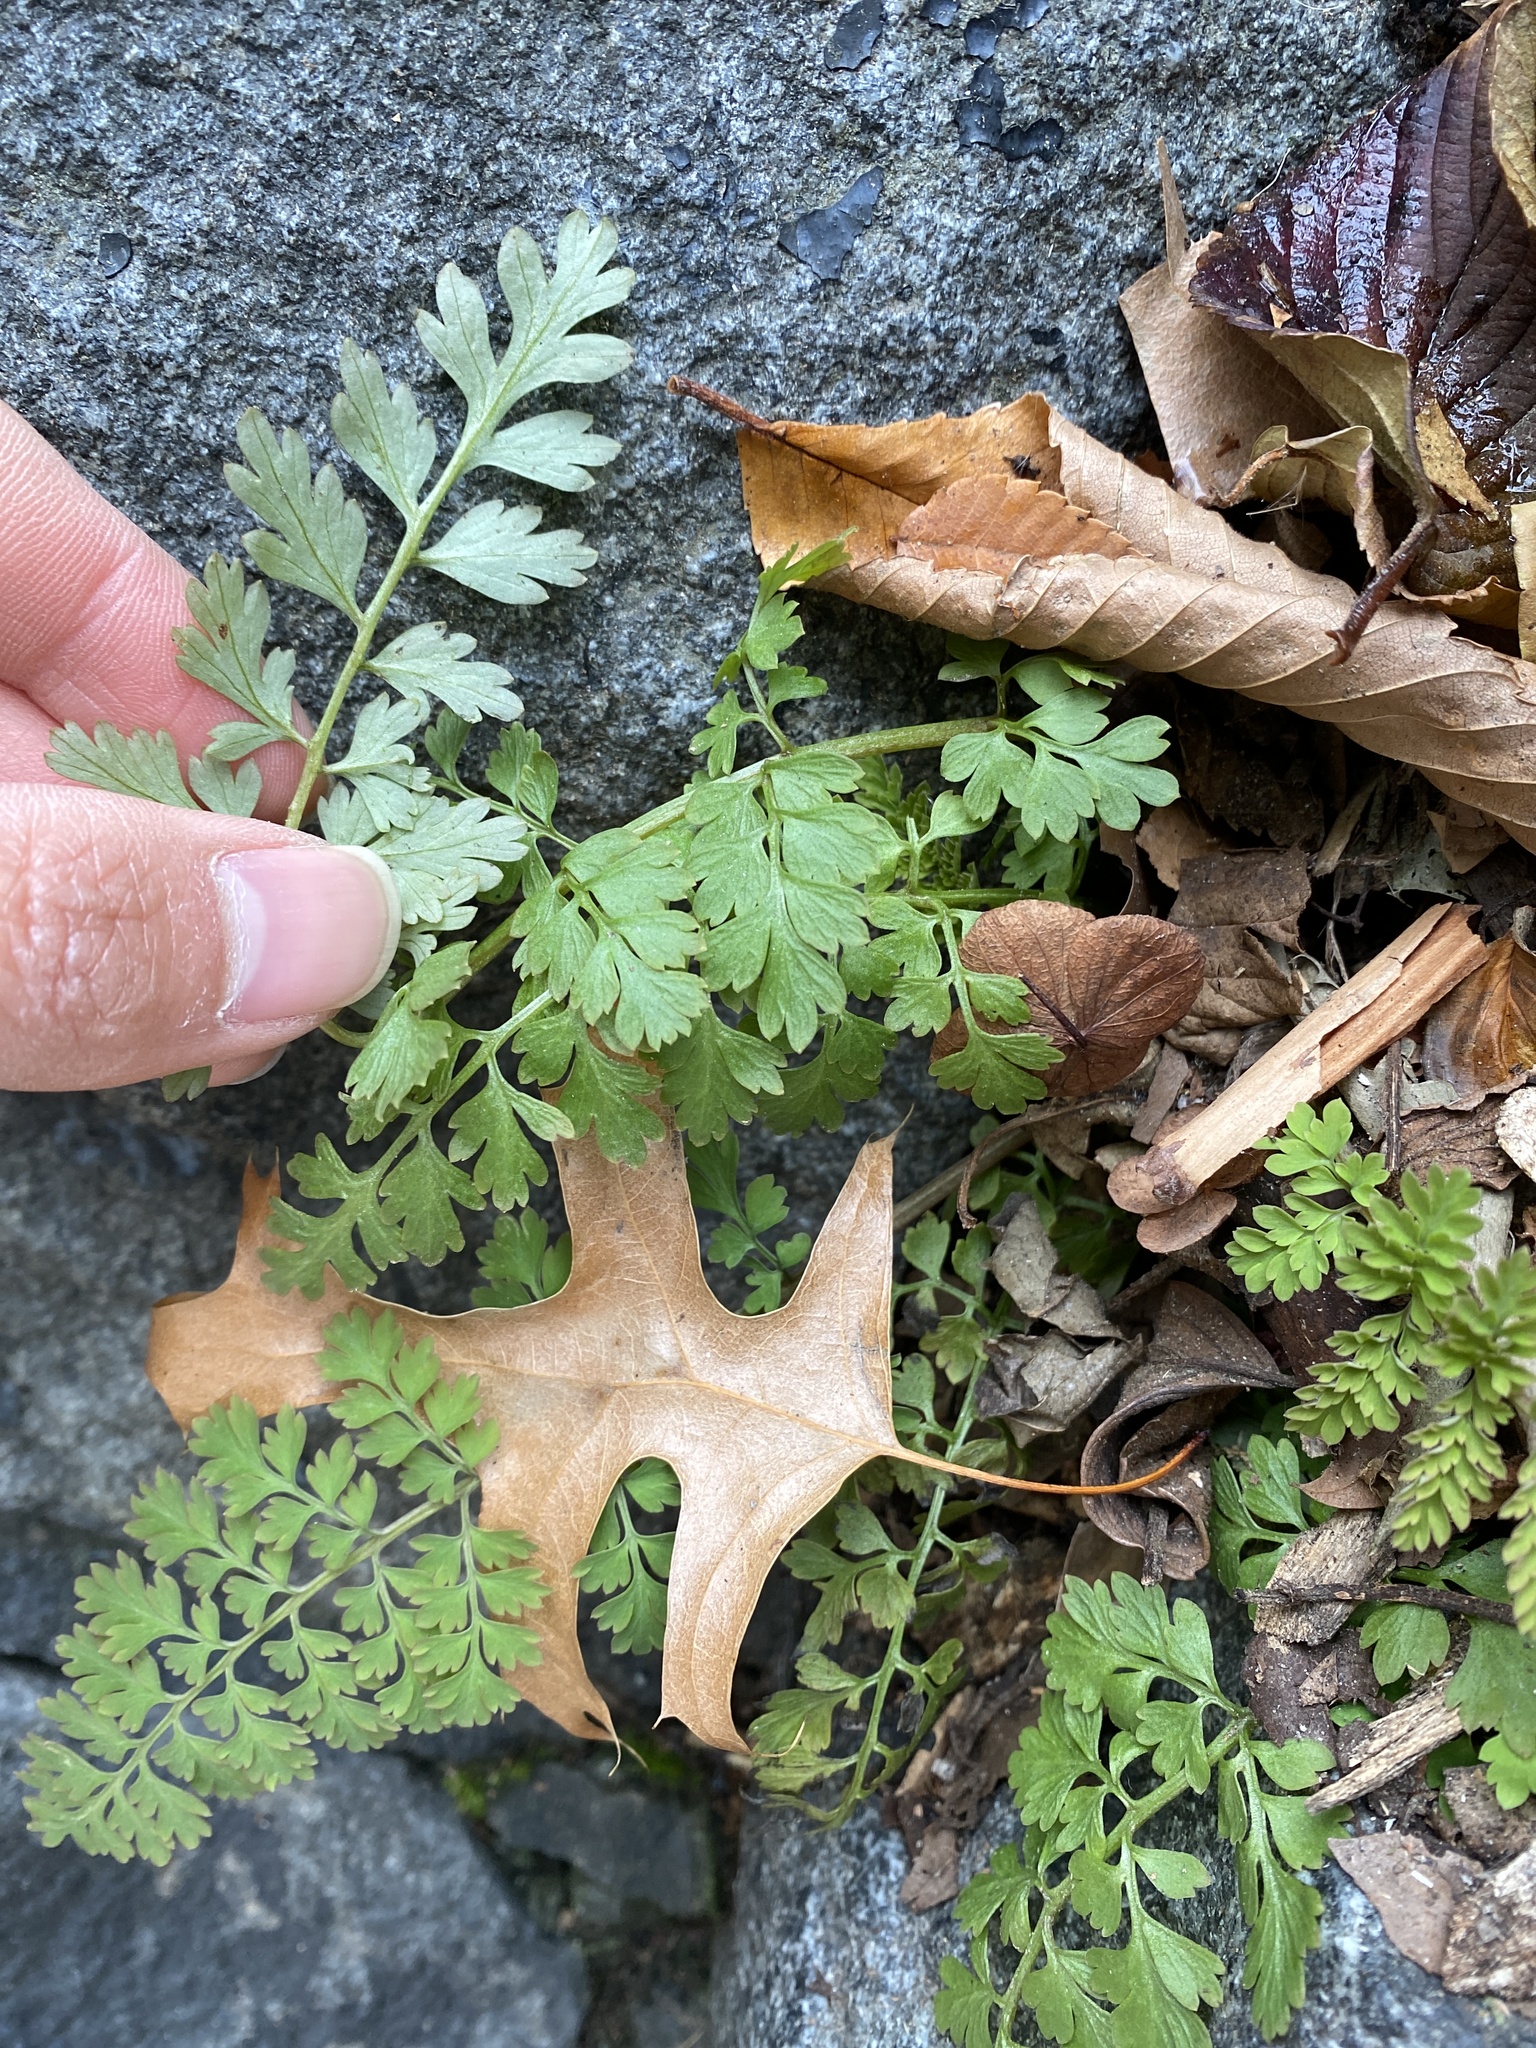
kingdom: Plantae
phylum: Tracheophyta
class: Magnoliopsida
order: Ranunculales
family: Papaveraceae
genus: Corydalis
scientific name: Corydalis cheilanthifolia
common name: Fern-leaved corydalis
